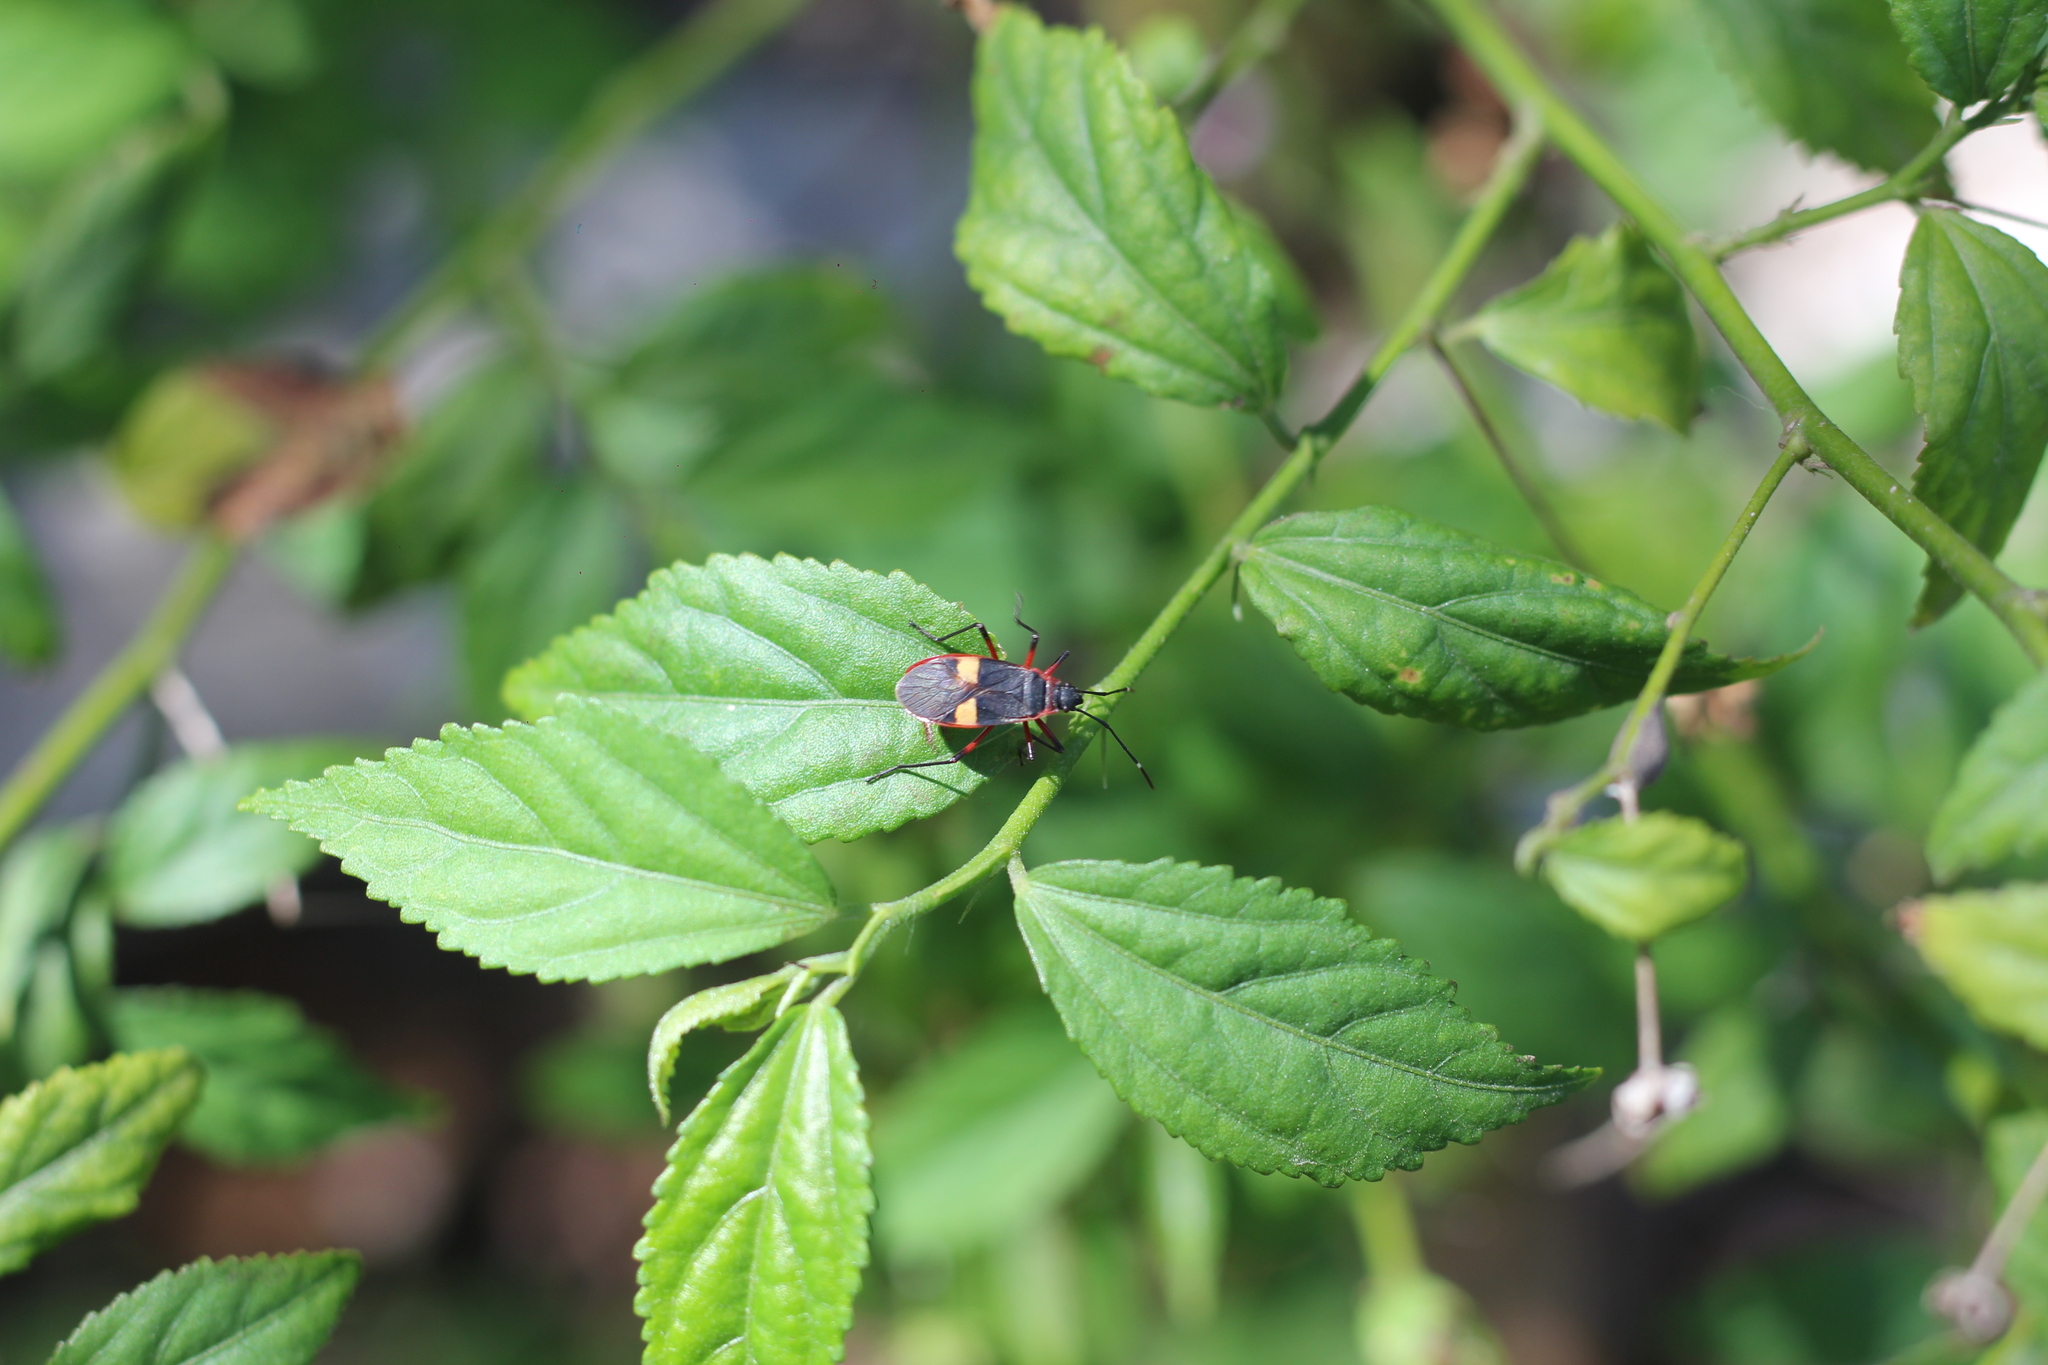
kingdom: Animalia
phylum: Arthropoda
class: Insecta
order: Hemiptera
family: Pyrrhocoridae
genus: Dysdercus
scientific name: Dysdercus albofasciatus
